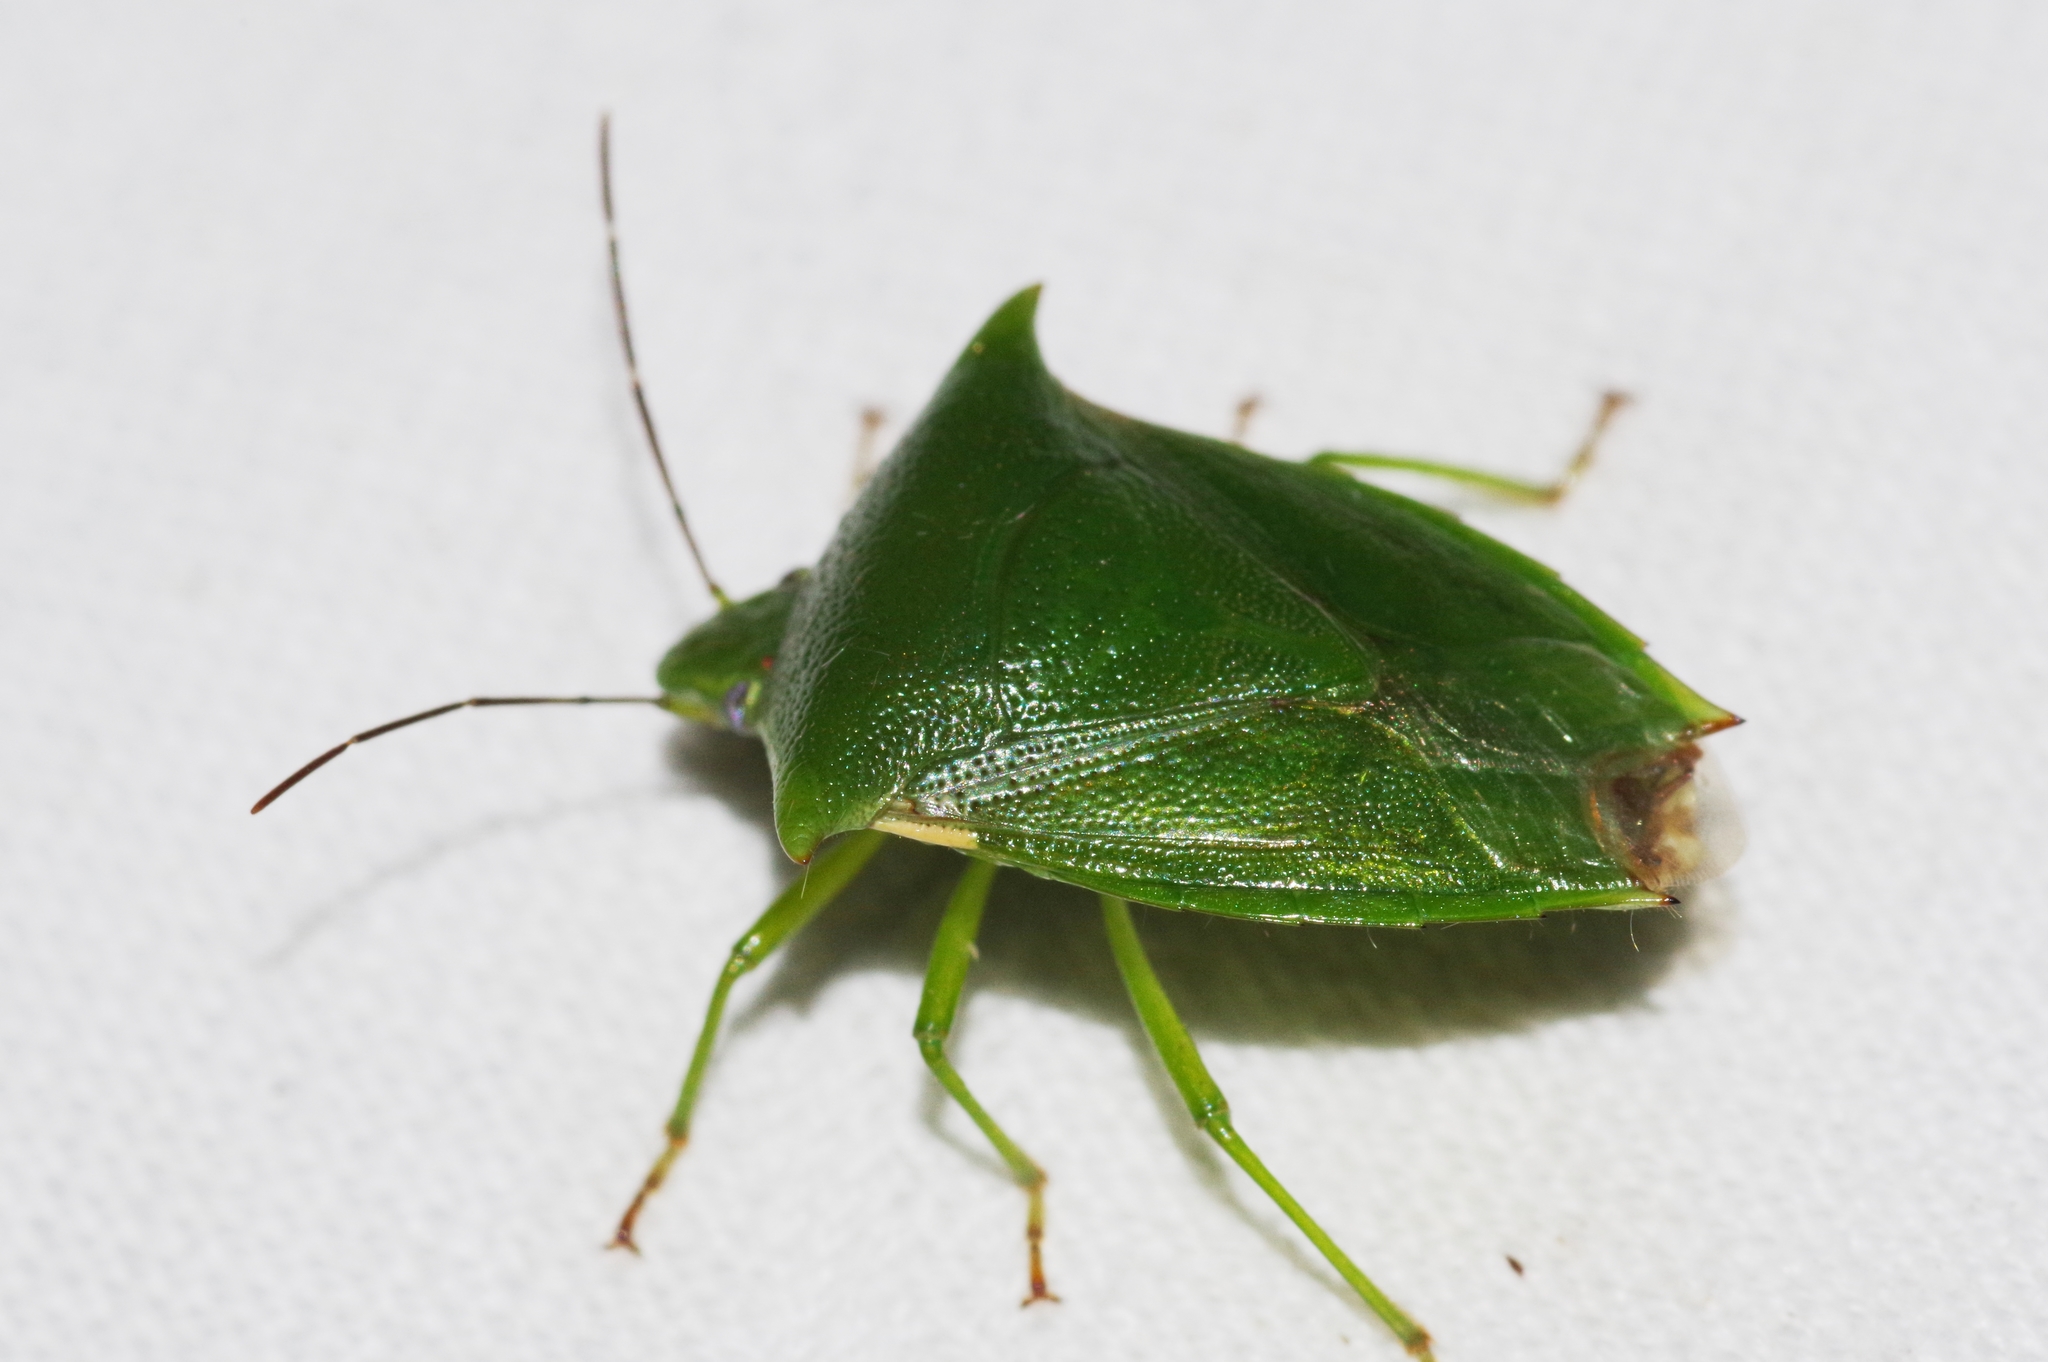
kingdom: Animalia
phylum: Arthropoda
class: Insecta
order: Hemiptera
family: Pentatomidae
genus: Vitellus
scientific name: Vitellus
